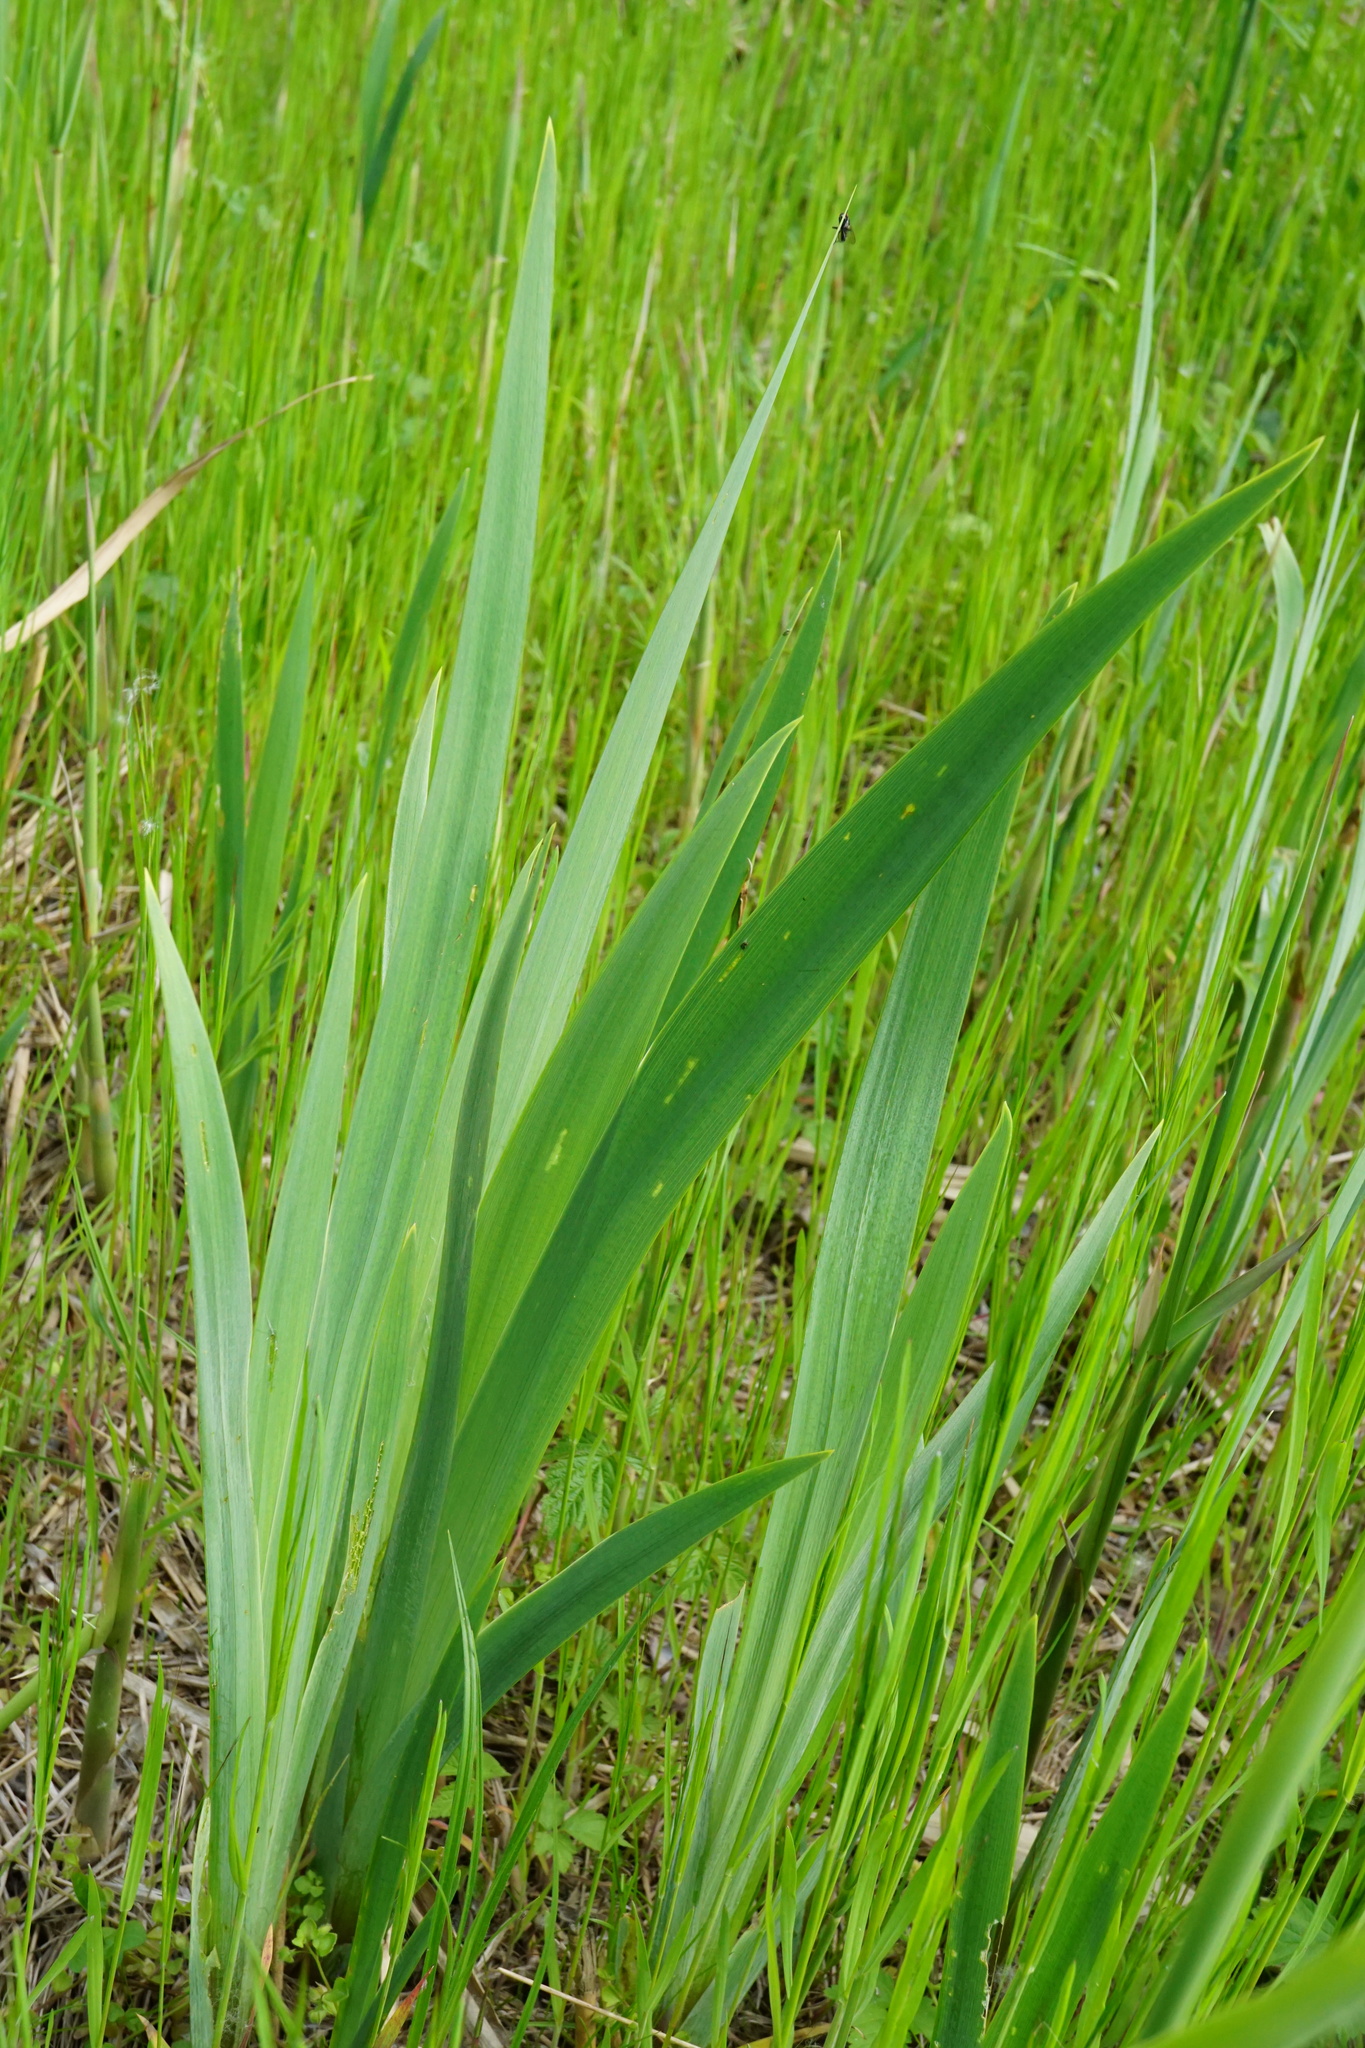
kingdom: Plantae
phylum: Tracheophyta
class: Liliopsida
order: Asparagales
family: Iridaceae
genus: Iris
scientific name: Iris pseudacorus
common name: Yellow flag
